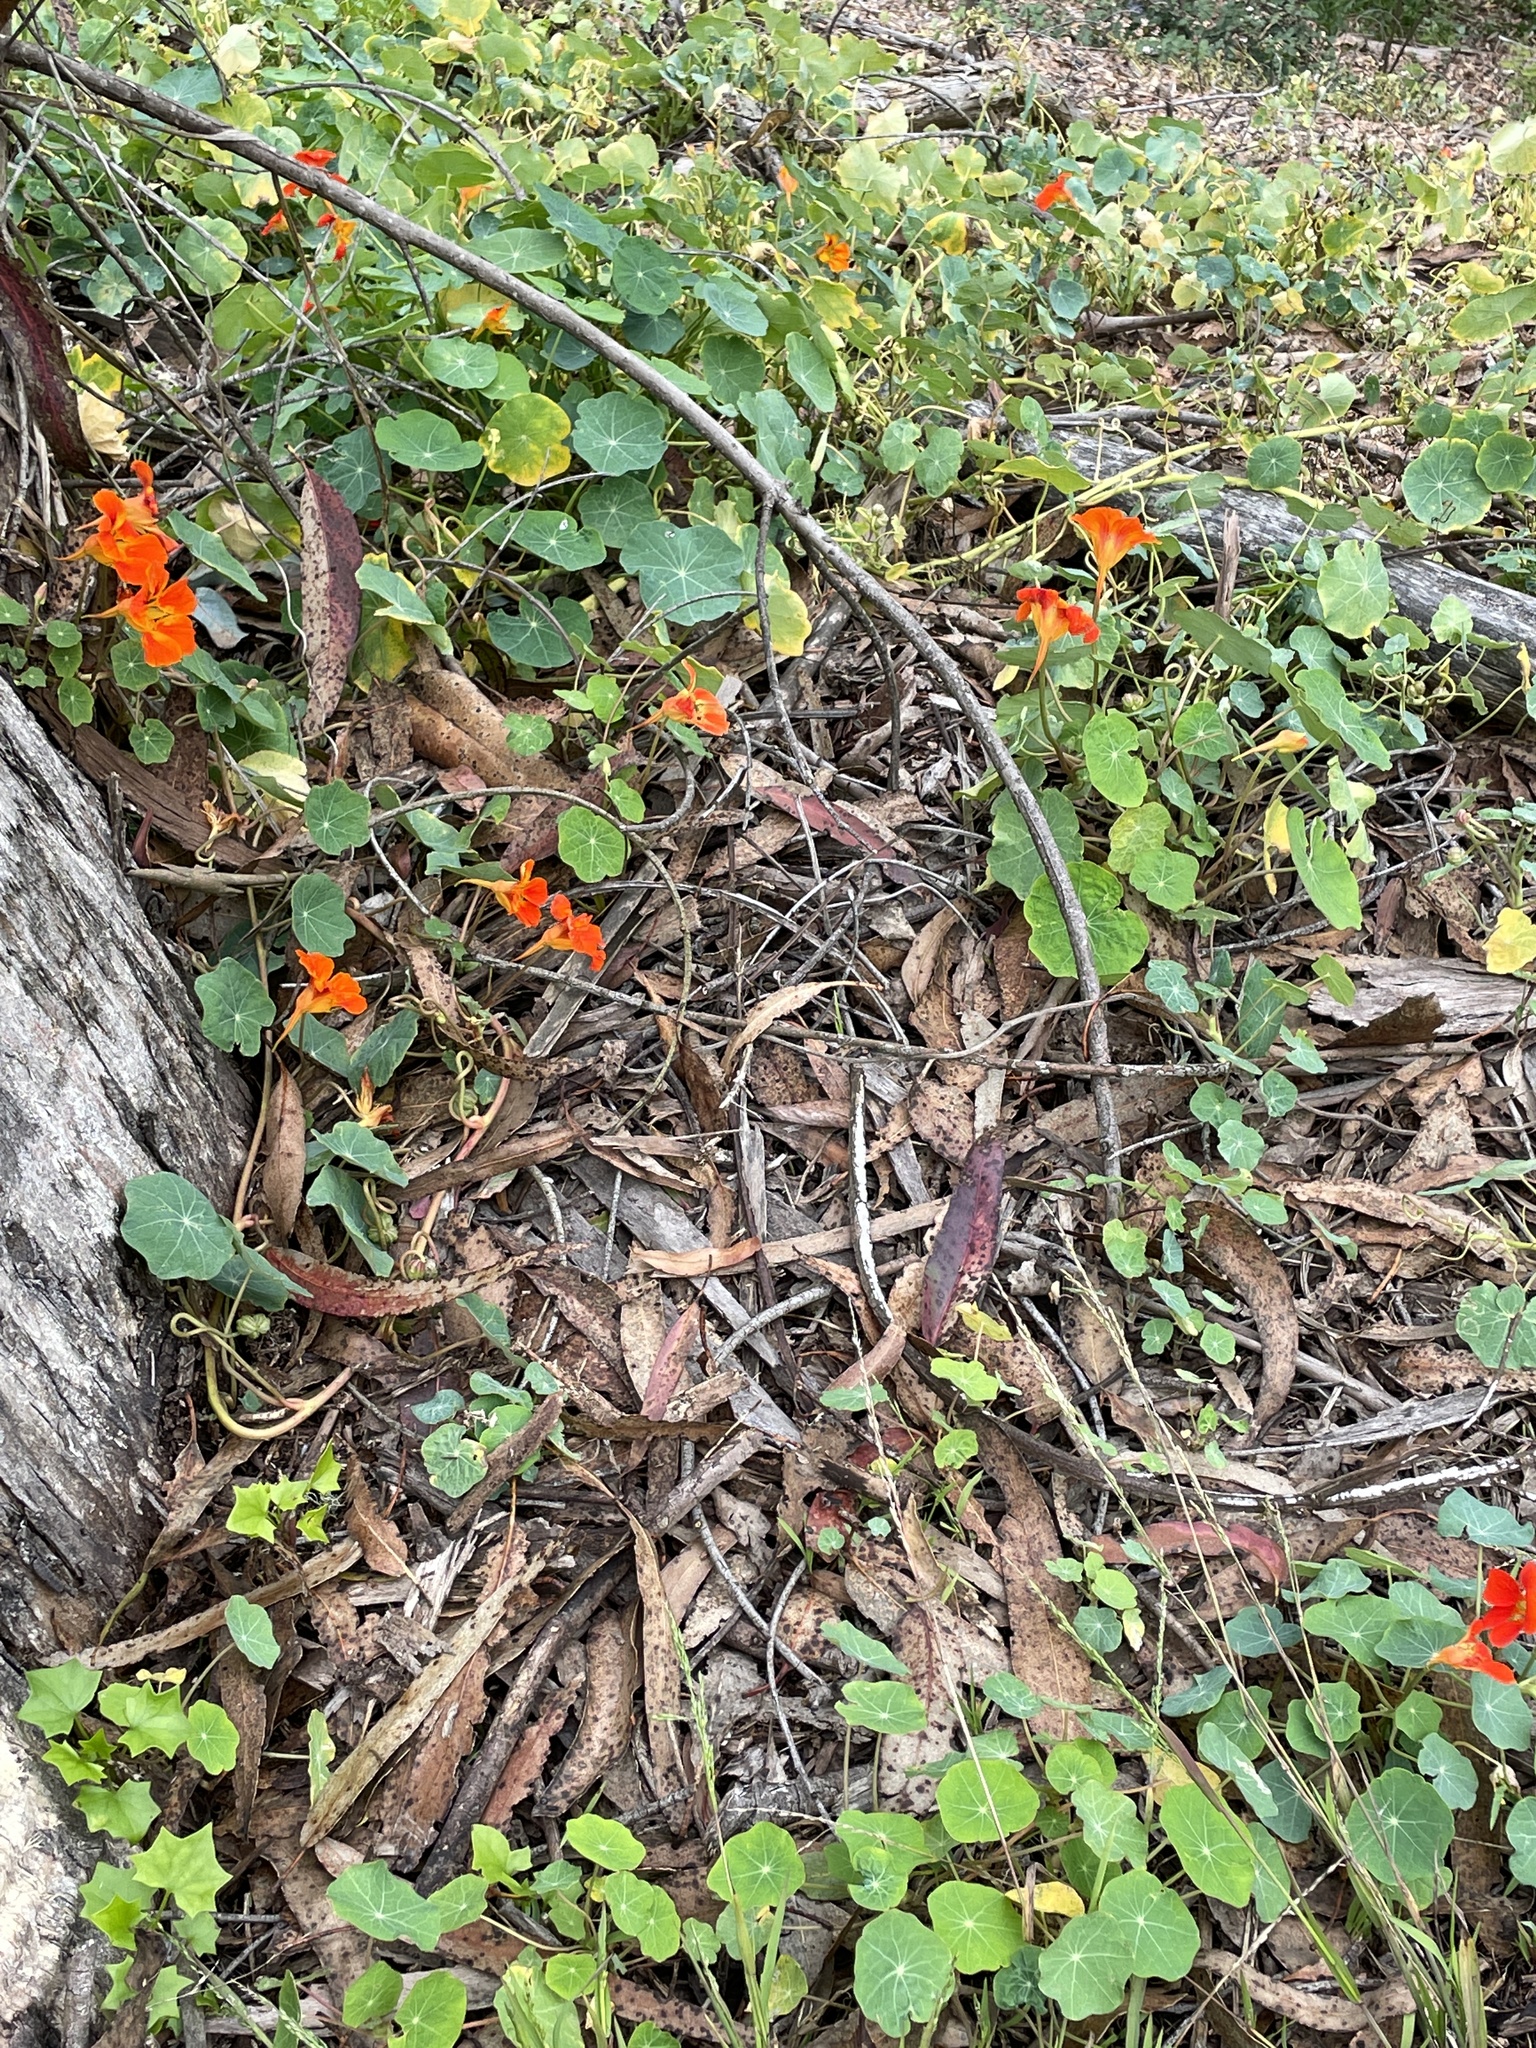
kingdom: Plantae
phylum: Tracheophyta
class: Magnoliopsida
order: Brassicales
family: Tropaeolaceae
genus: Tropaeolum
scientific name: Tropaeolum majus
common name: Nasturtium
